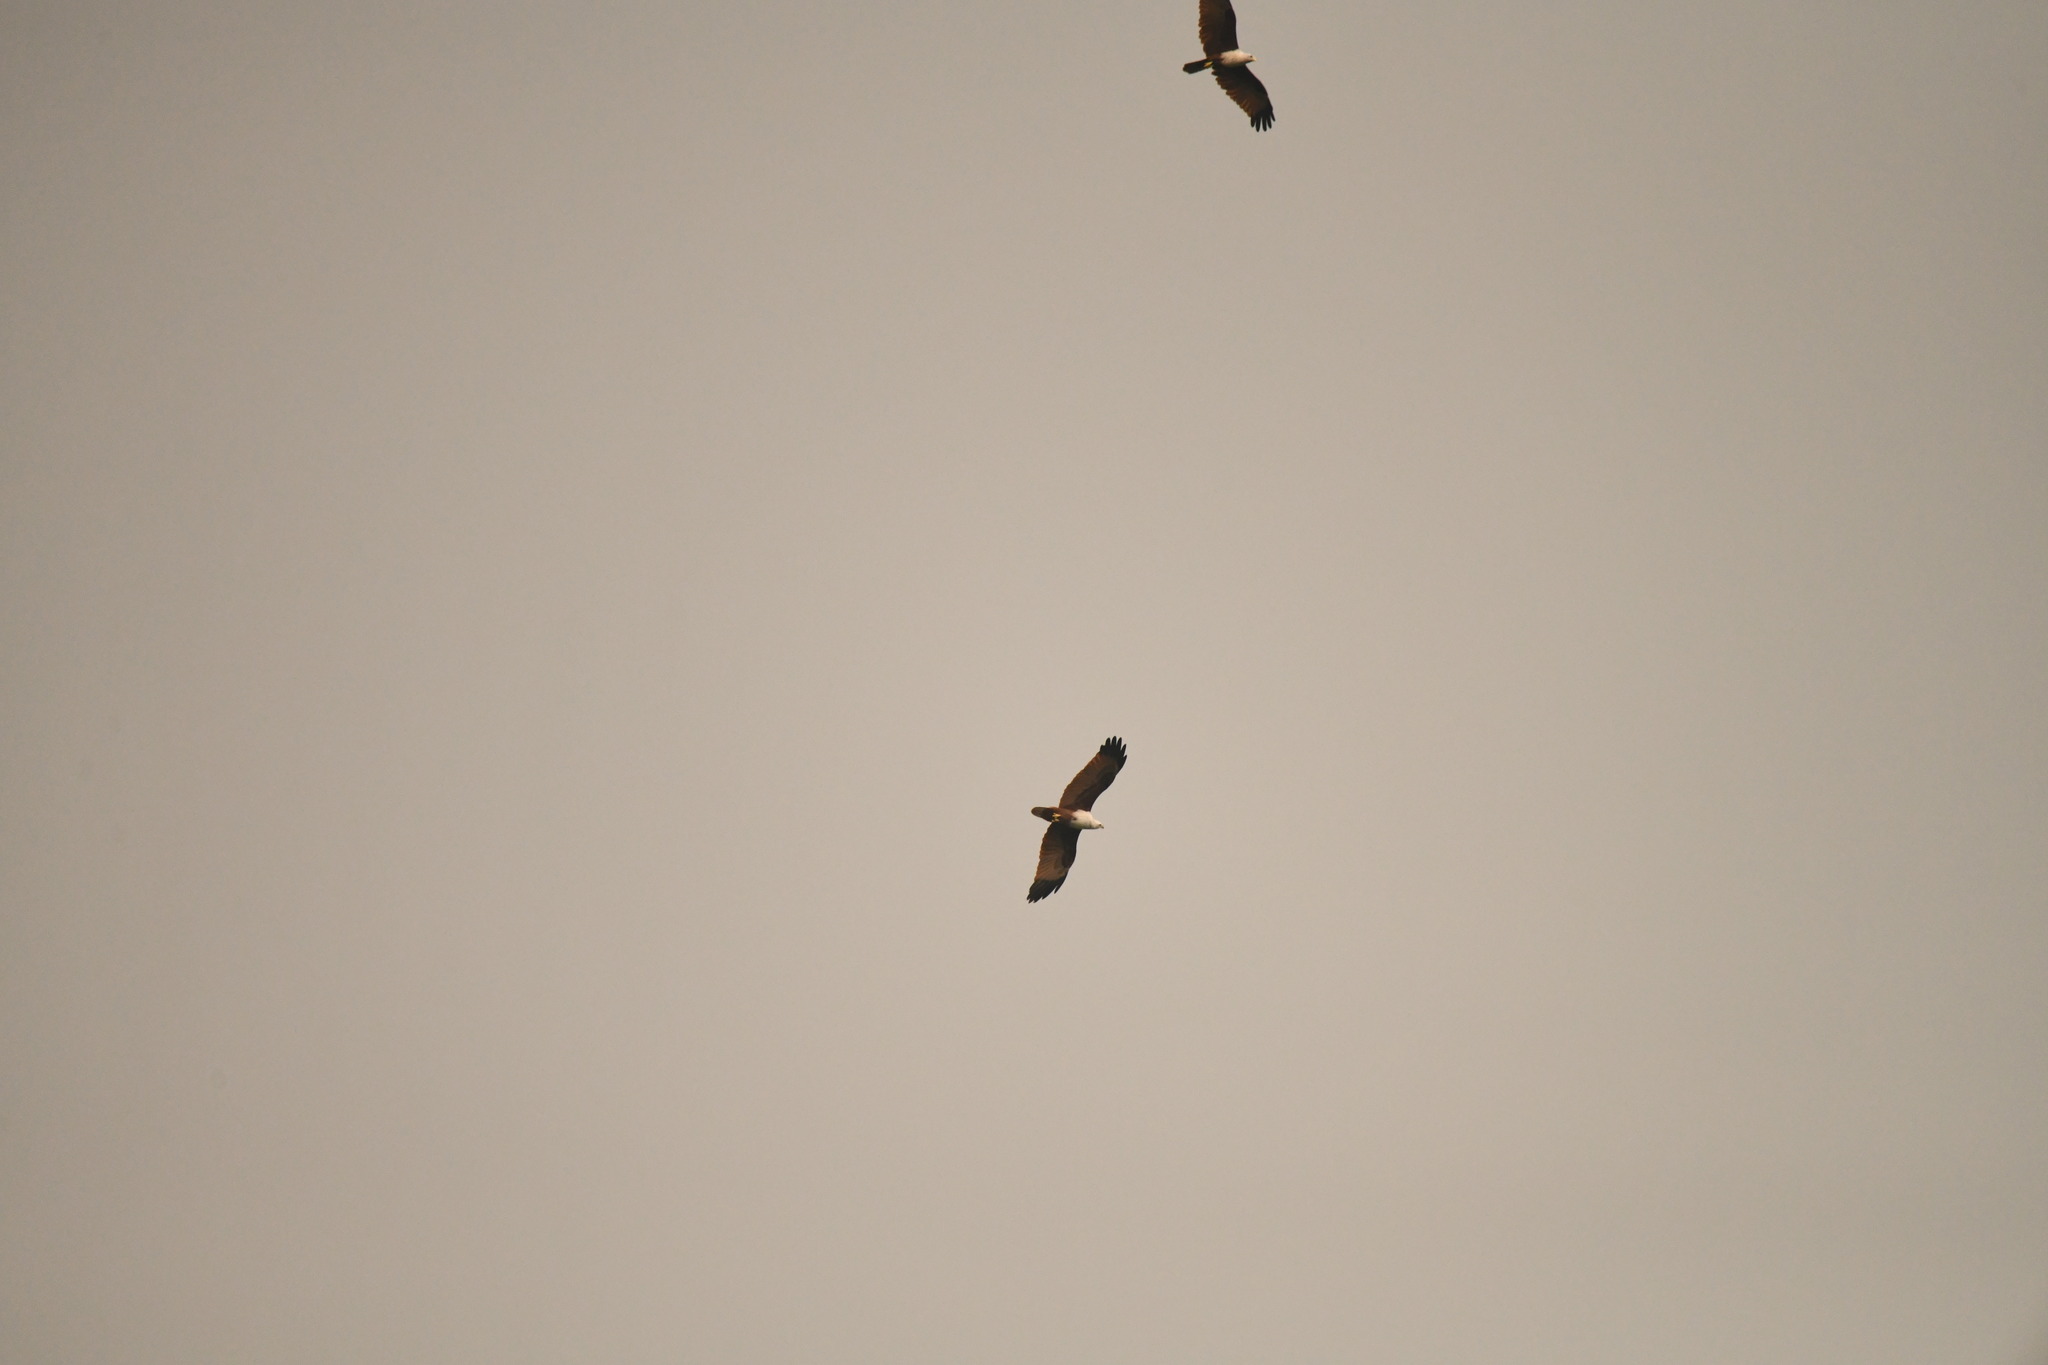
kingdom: Animalia
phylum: Chordata
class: Aves
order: Accipitriformes
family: Accipitridae
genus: Haliastur
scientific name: Haliastur indus
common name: Brahminy kite
